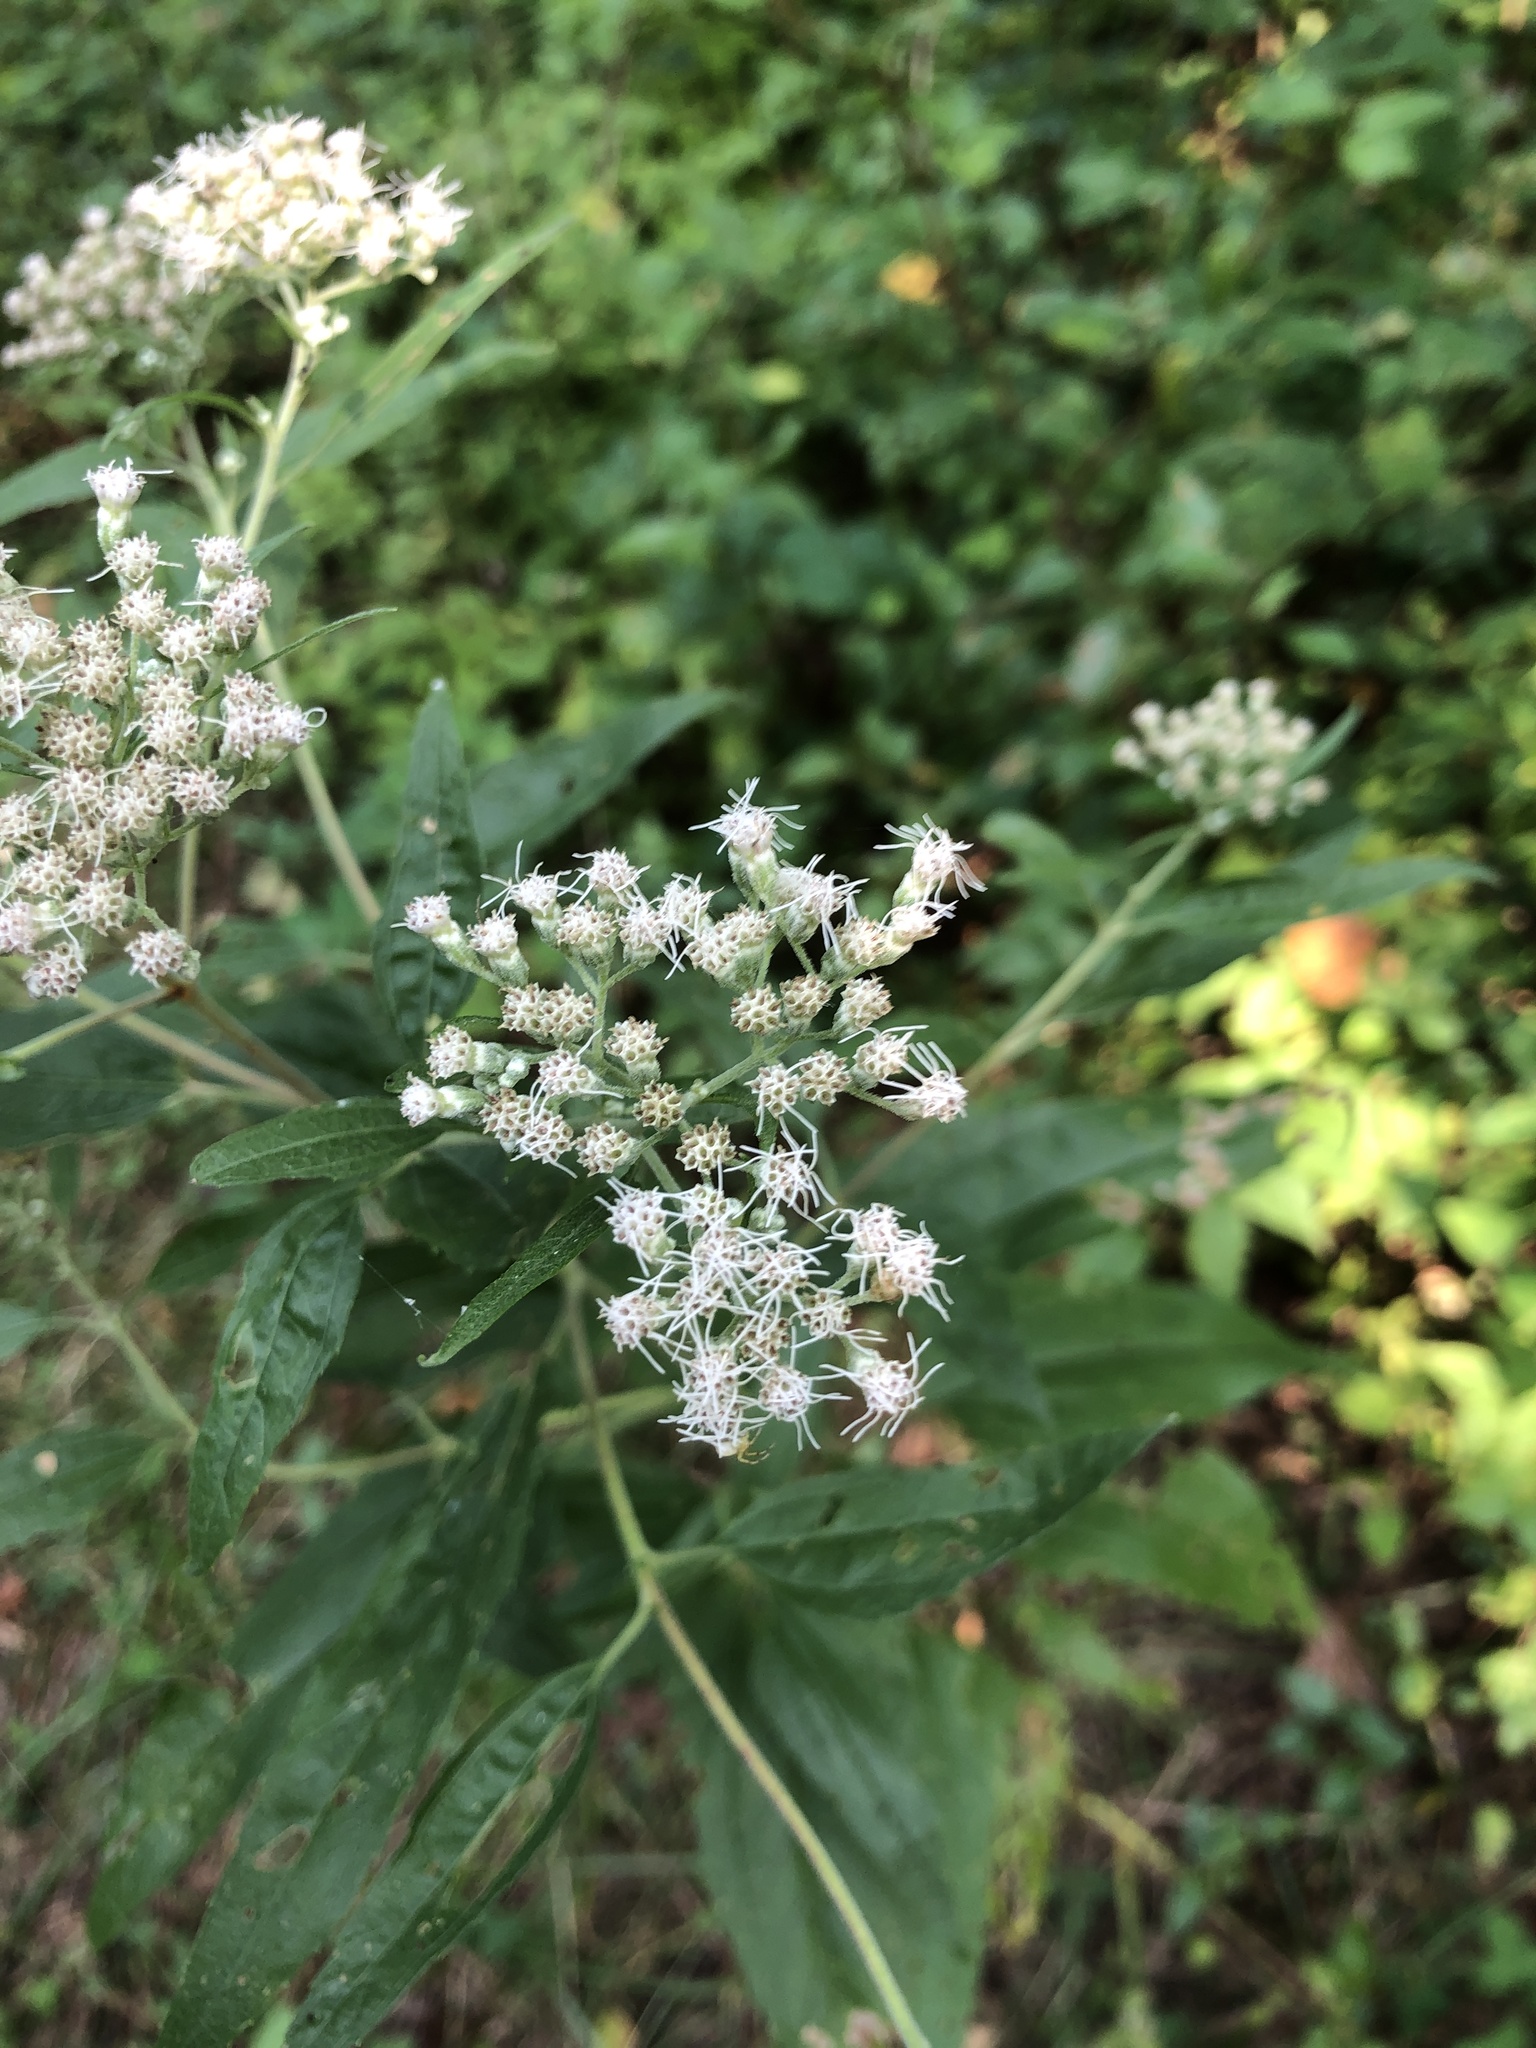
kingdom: Plantae
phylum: Tracheophyta
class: Magnoliopsida
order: Asterales
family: Asteraceae
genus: Eupatorium
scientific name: Eupatorium serotinum
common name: Late boneset
